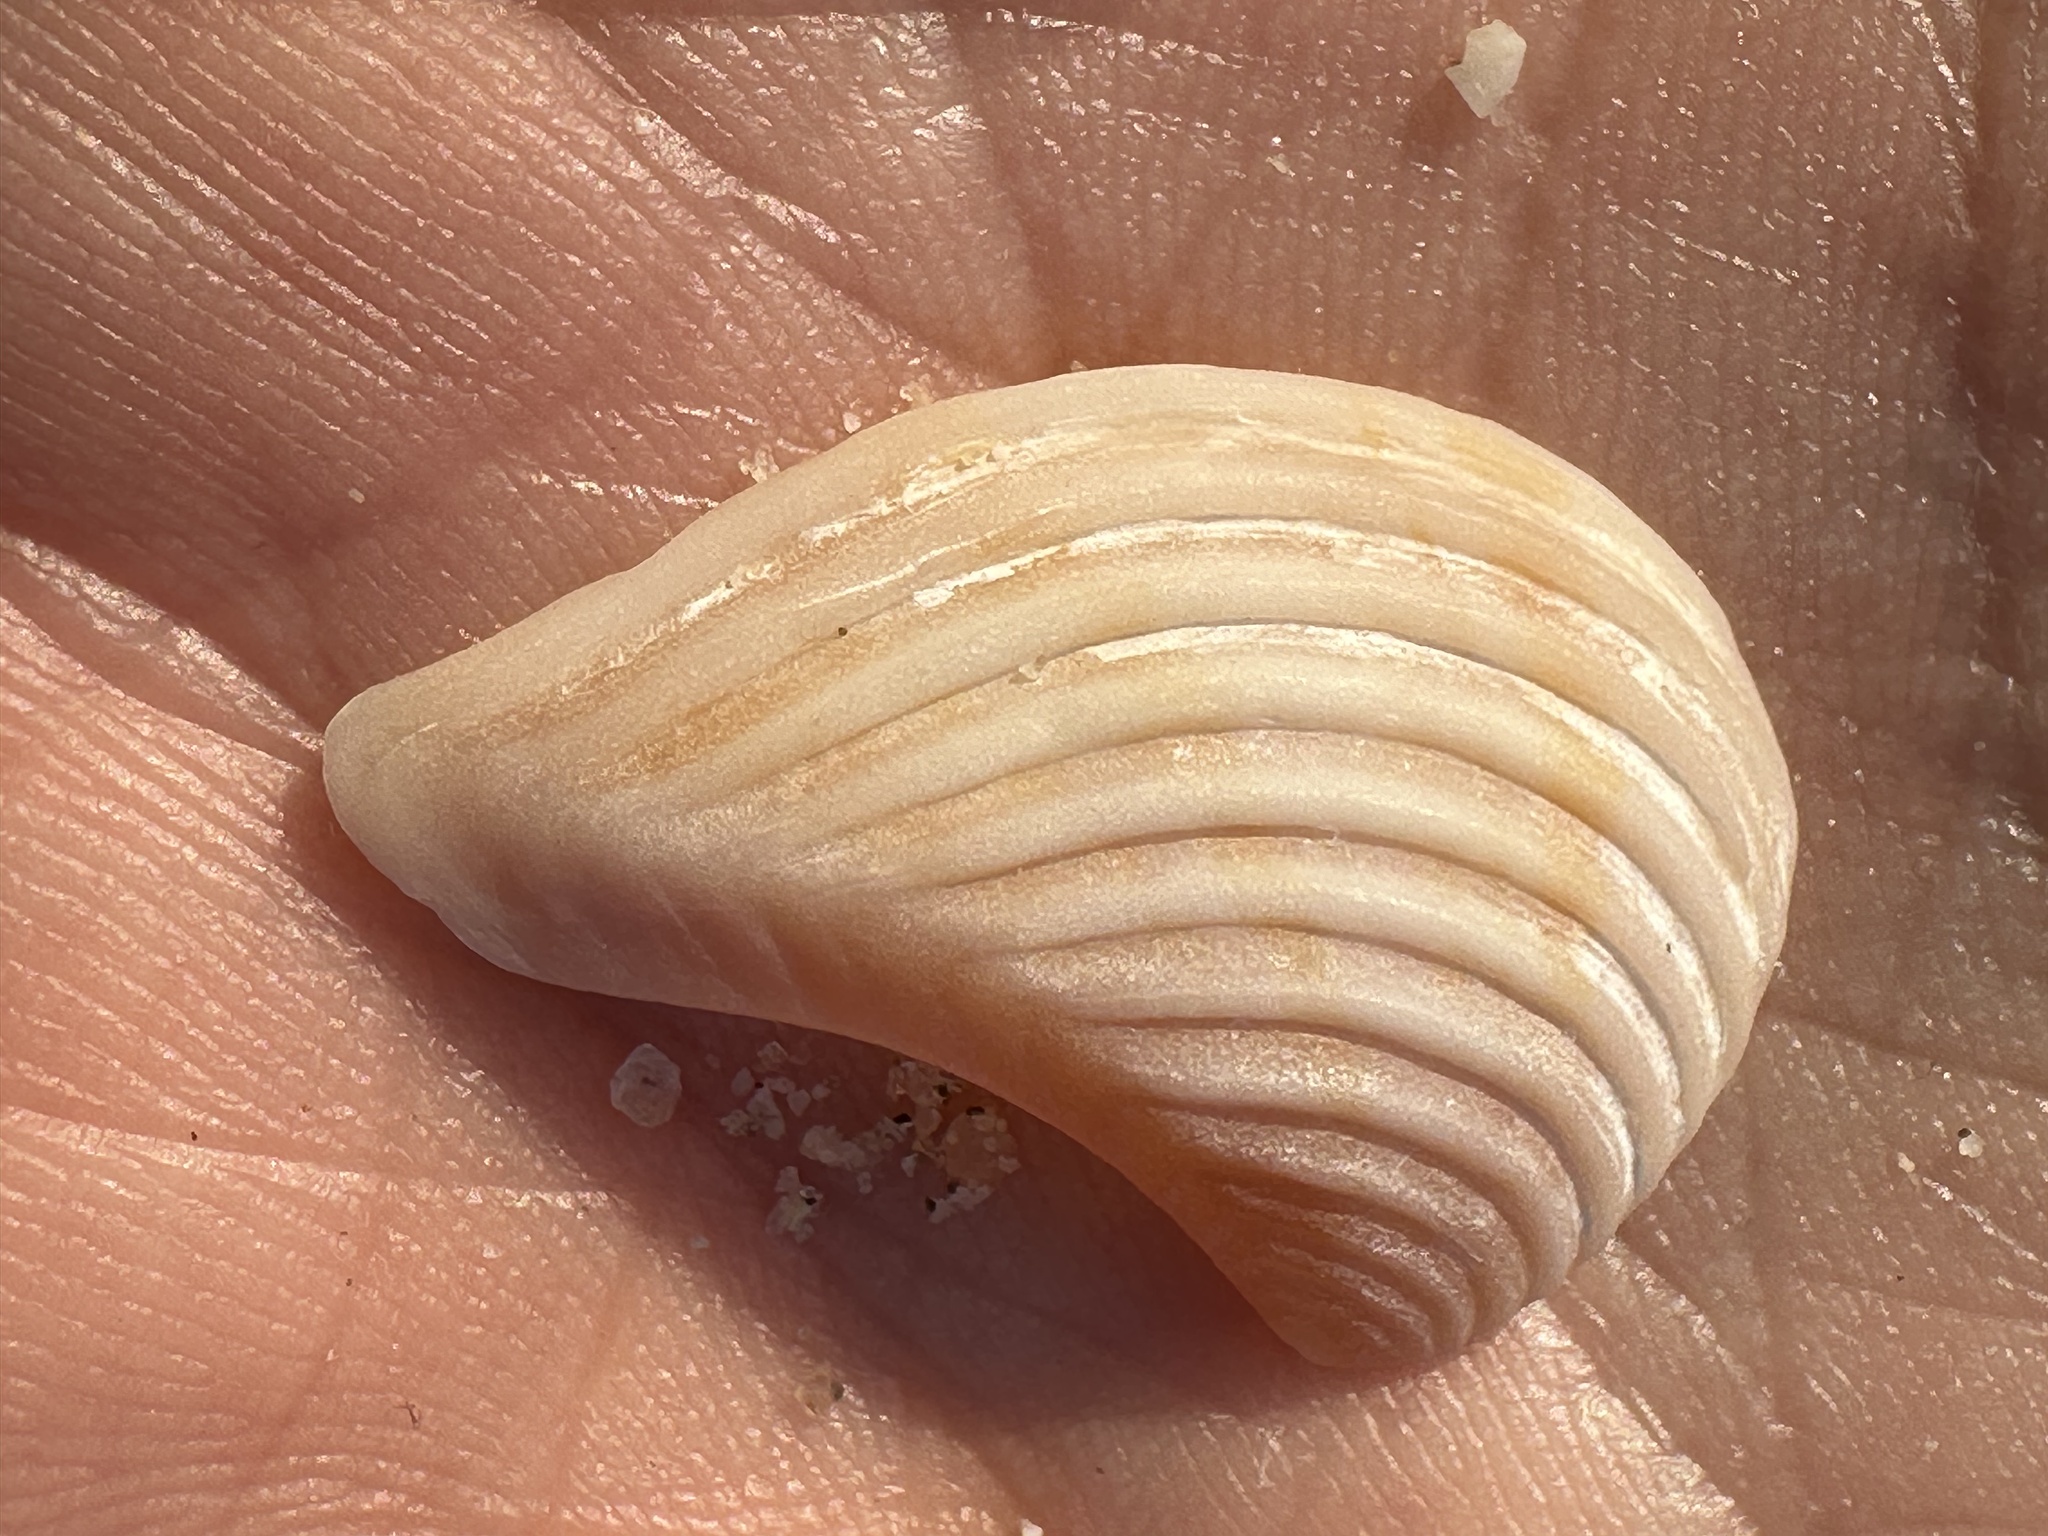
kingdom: Animalia
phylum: Mollusca
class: Bivalvia
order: Carditida
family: Crassatellidae
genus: Bathytormus
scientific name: Bathytormus radiatus
